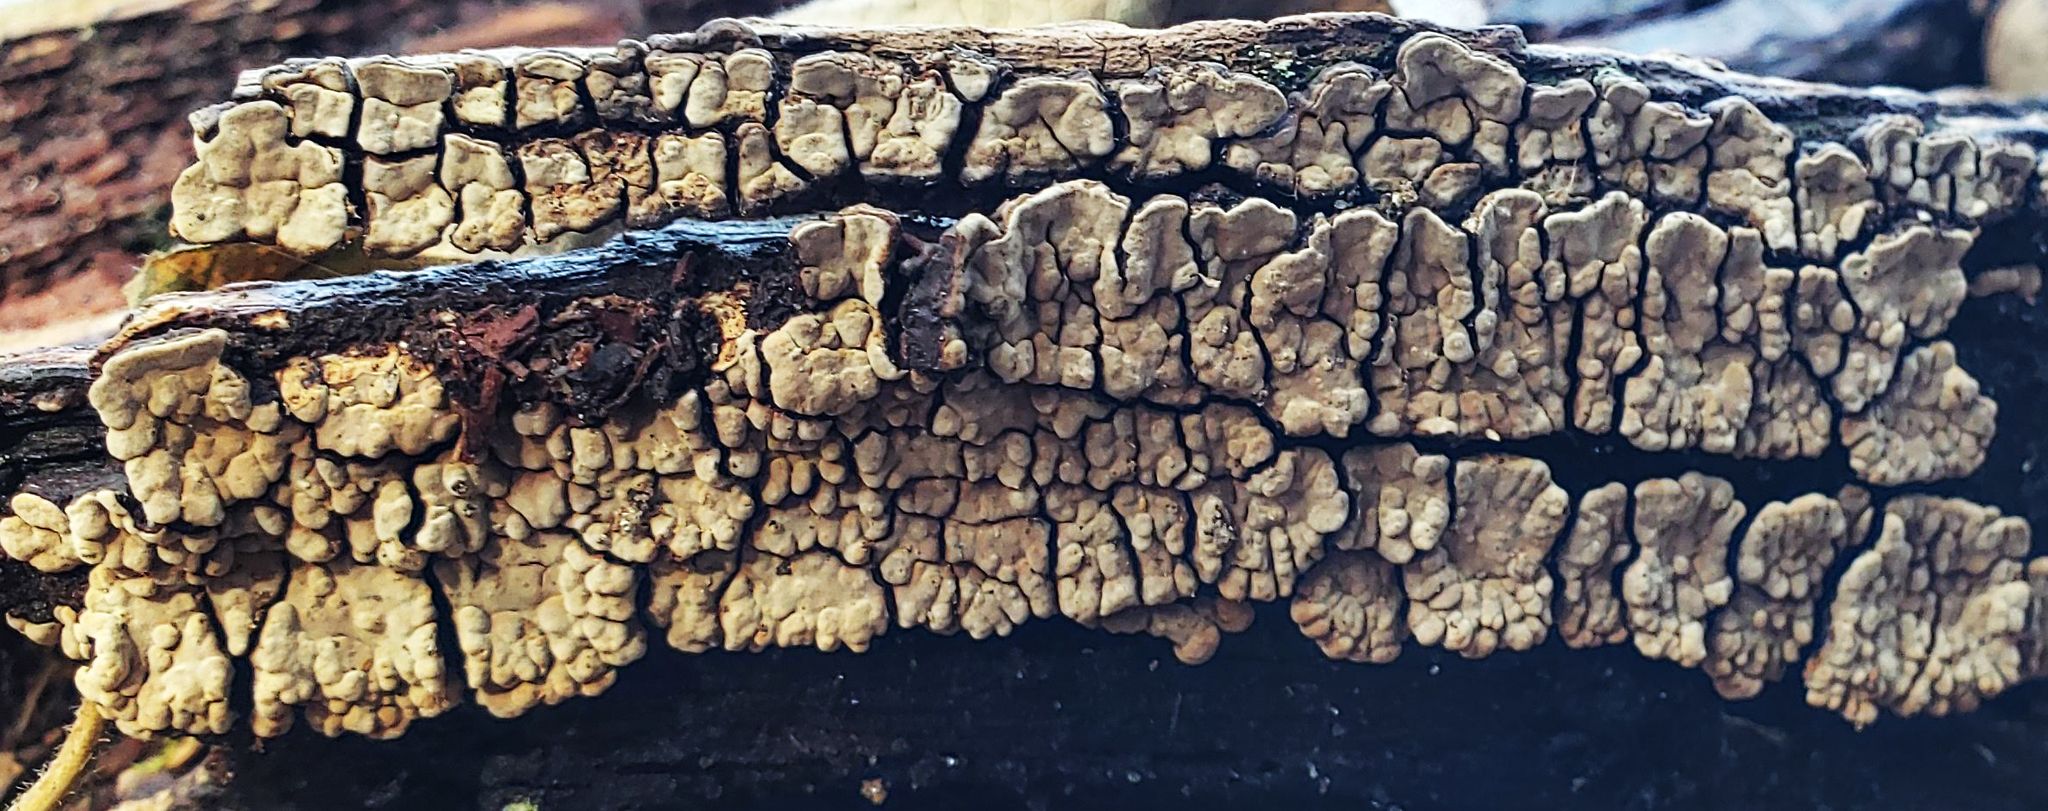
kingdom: Fungi
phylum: Basidiomycota
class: Agaricomycetes
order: Russulales
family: Stereaceae
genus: Xylobolus
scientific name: Xylobolus frustulatus
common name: Ceramic parchment
